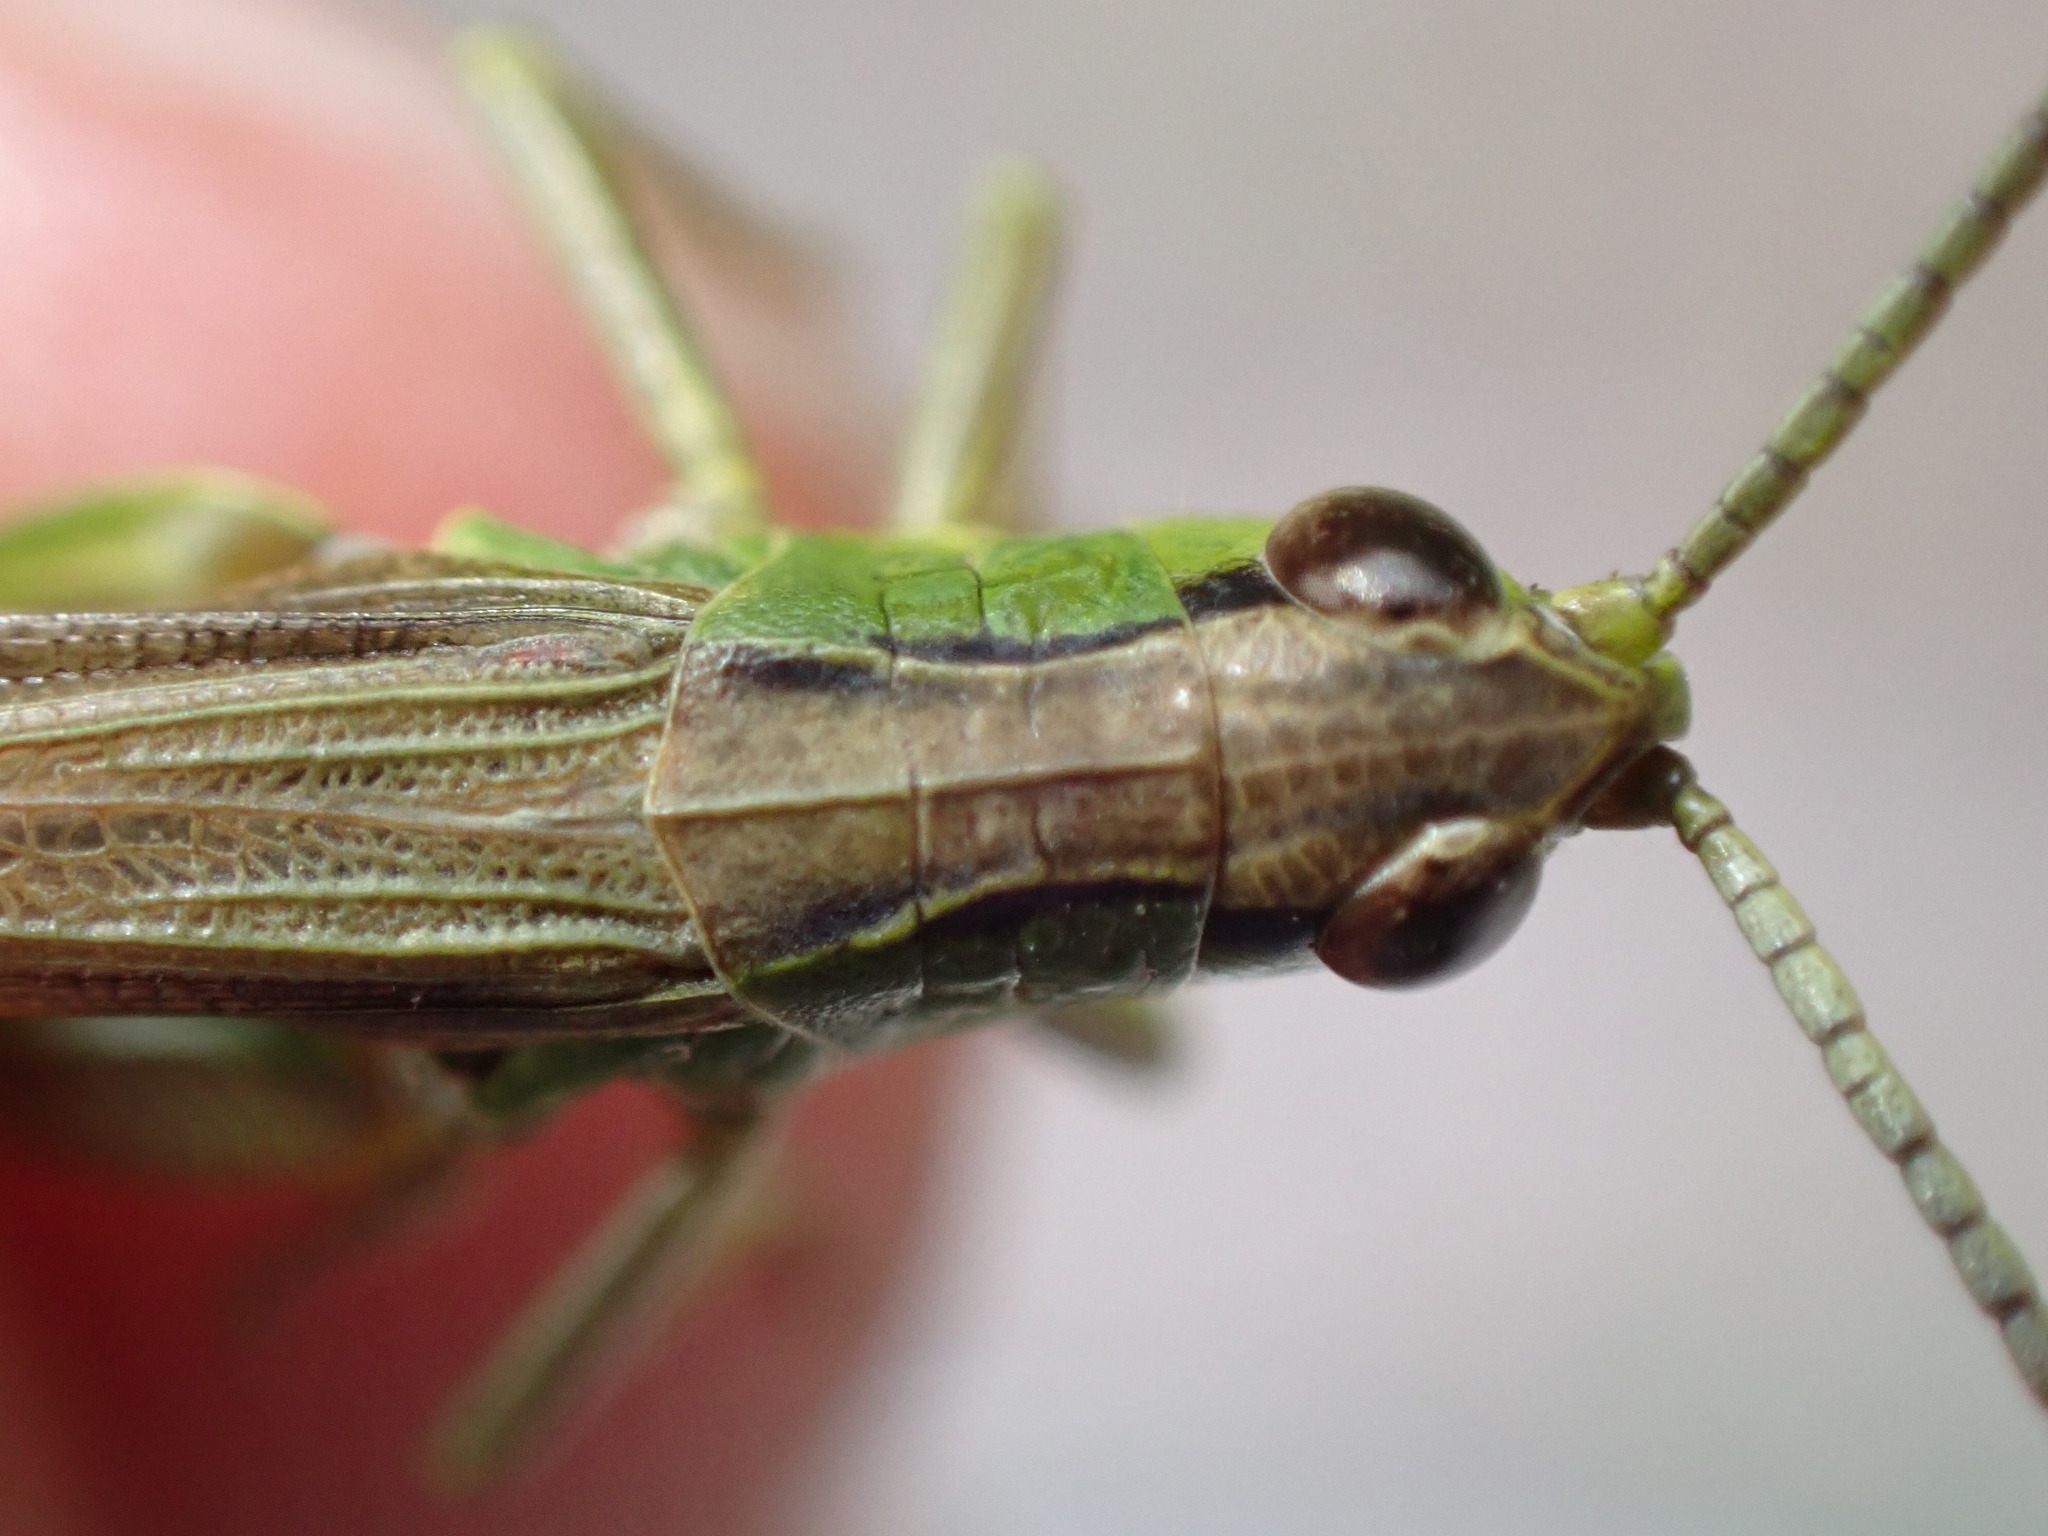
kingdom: Animalia
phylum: Arthropoda
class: Insecta
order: Orthoptera
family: Acrididae
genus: Pseudochorthippus
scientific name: Pseudochorthippus parallelus
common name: Meadow grasshopper
